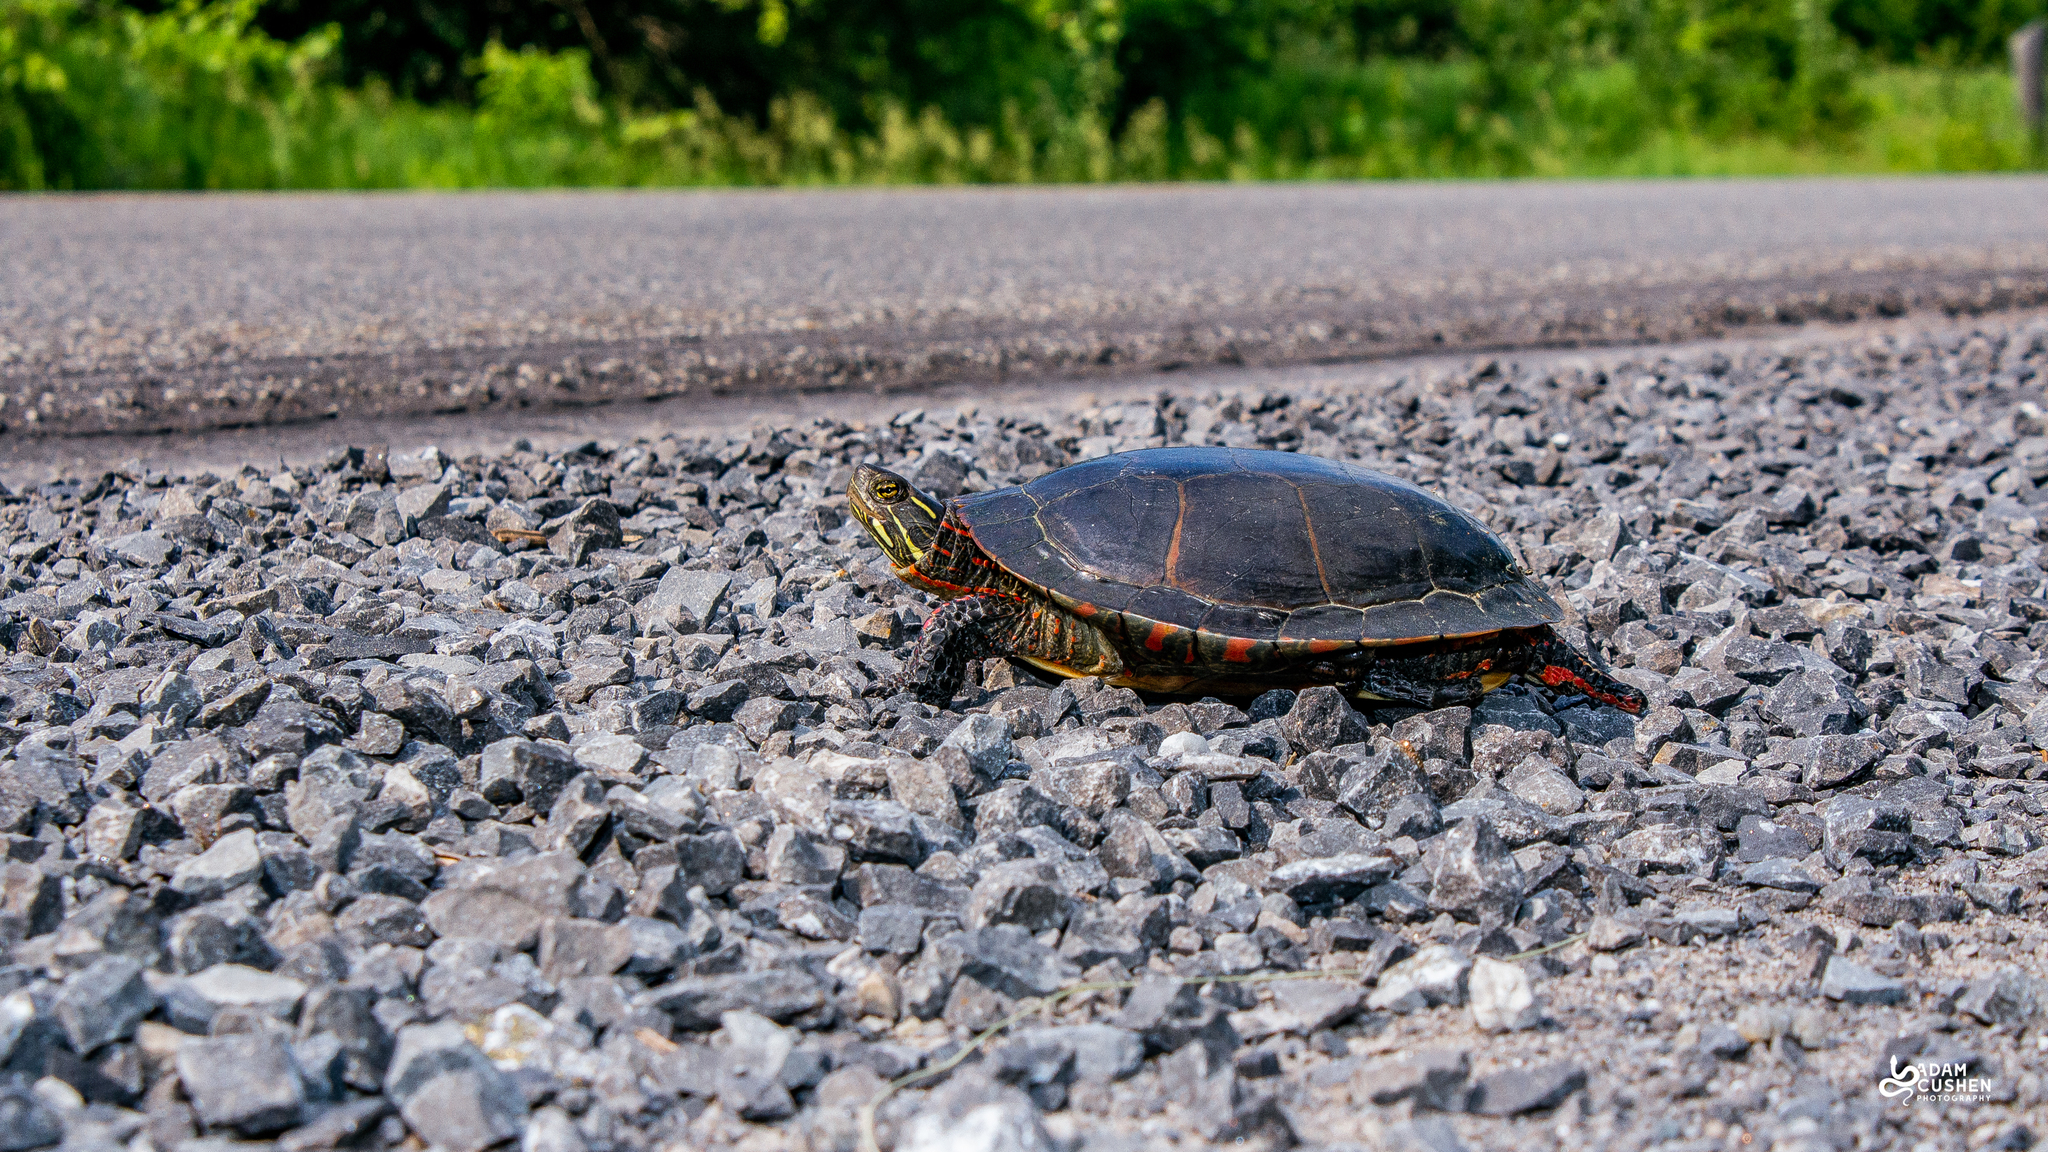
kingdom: Animalia
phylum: Chordata
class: Testudines
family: Emydidae
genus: Chrysemys
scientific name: Chrysemys picta
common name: Painted turtle
